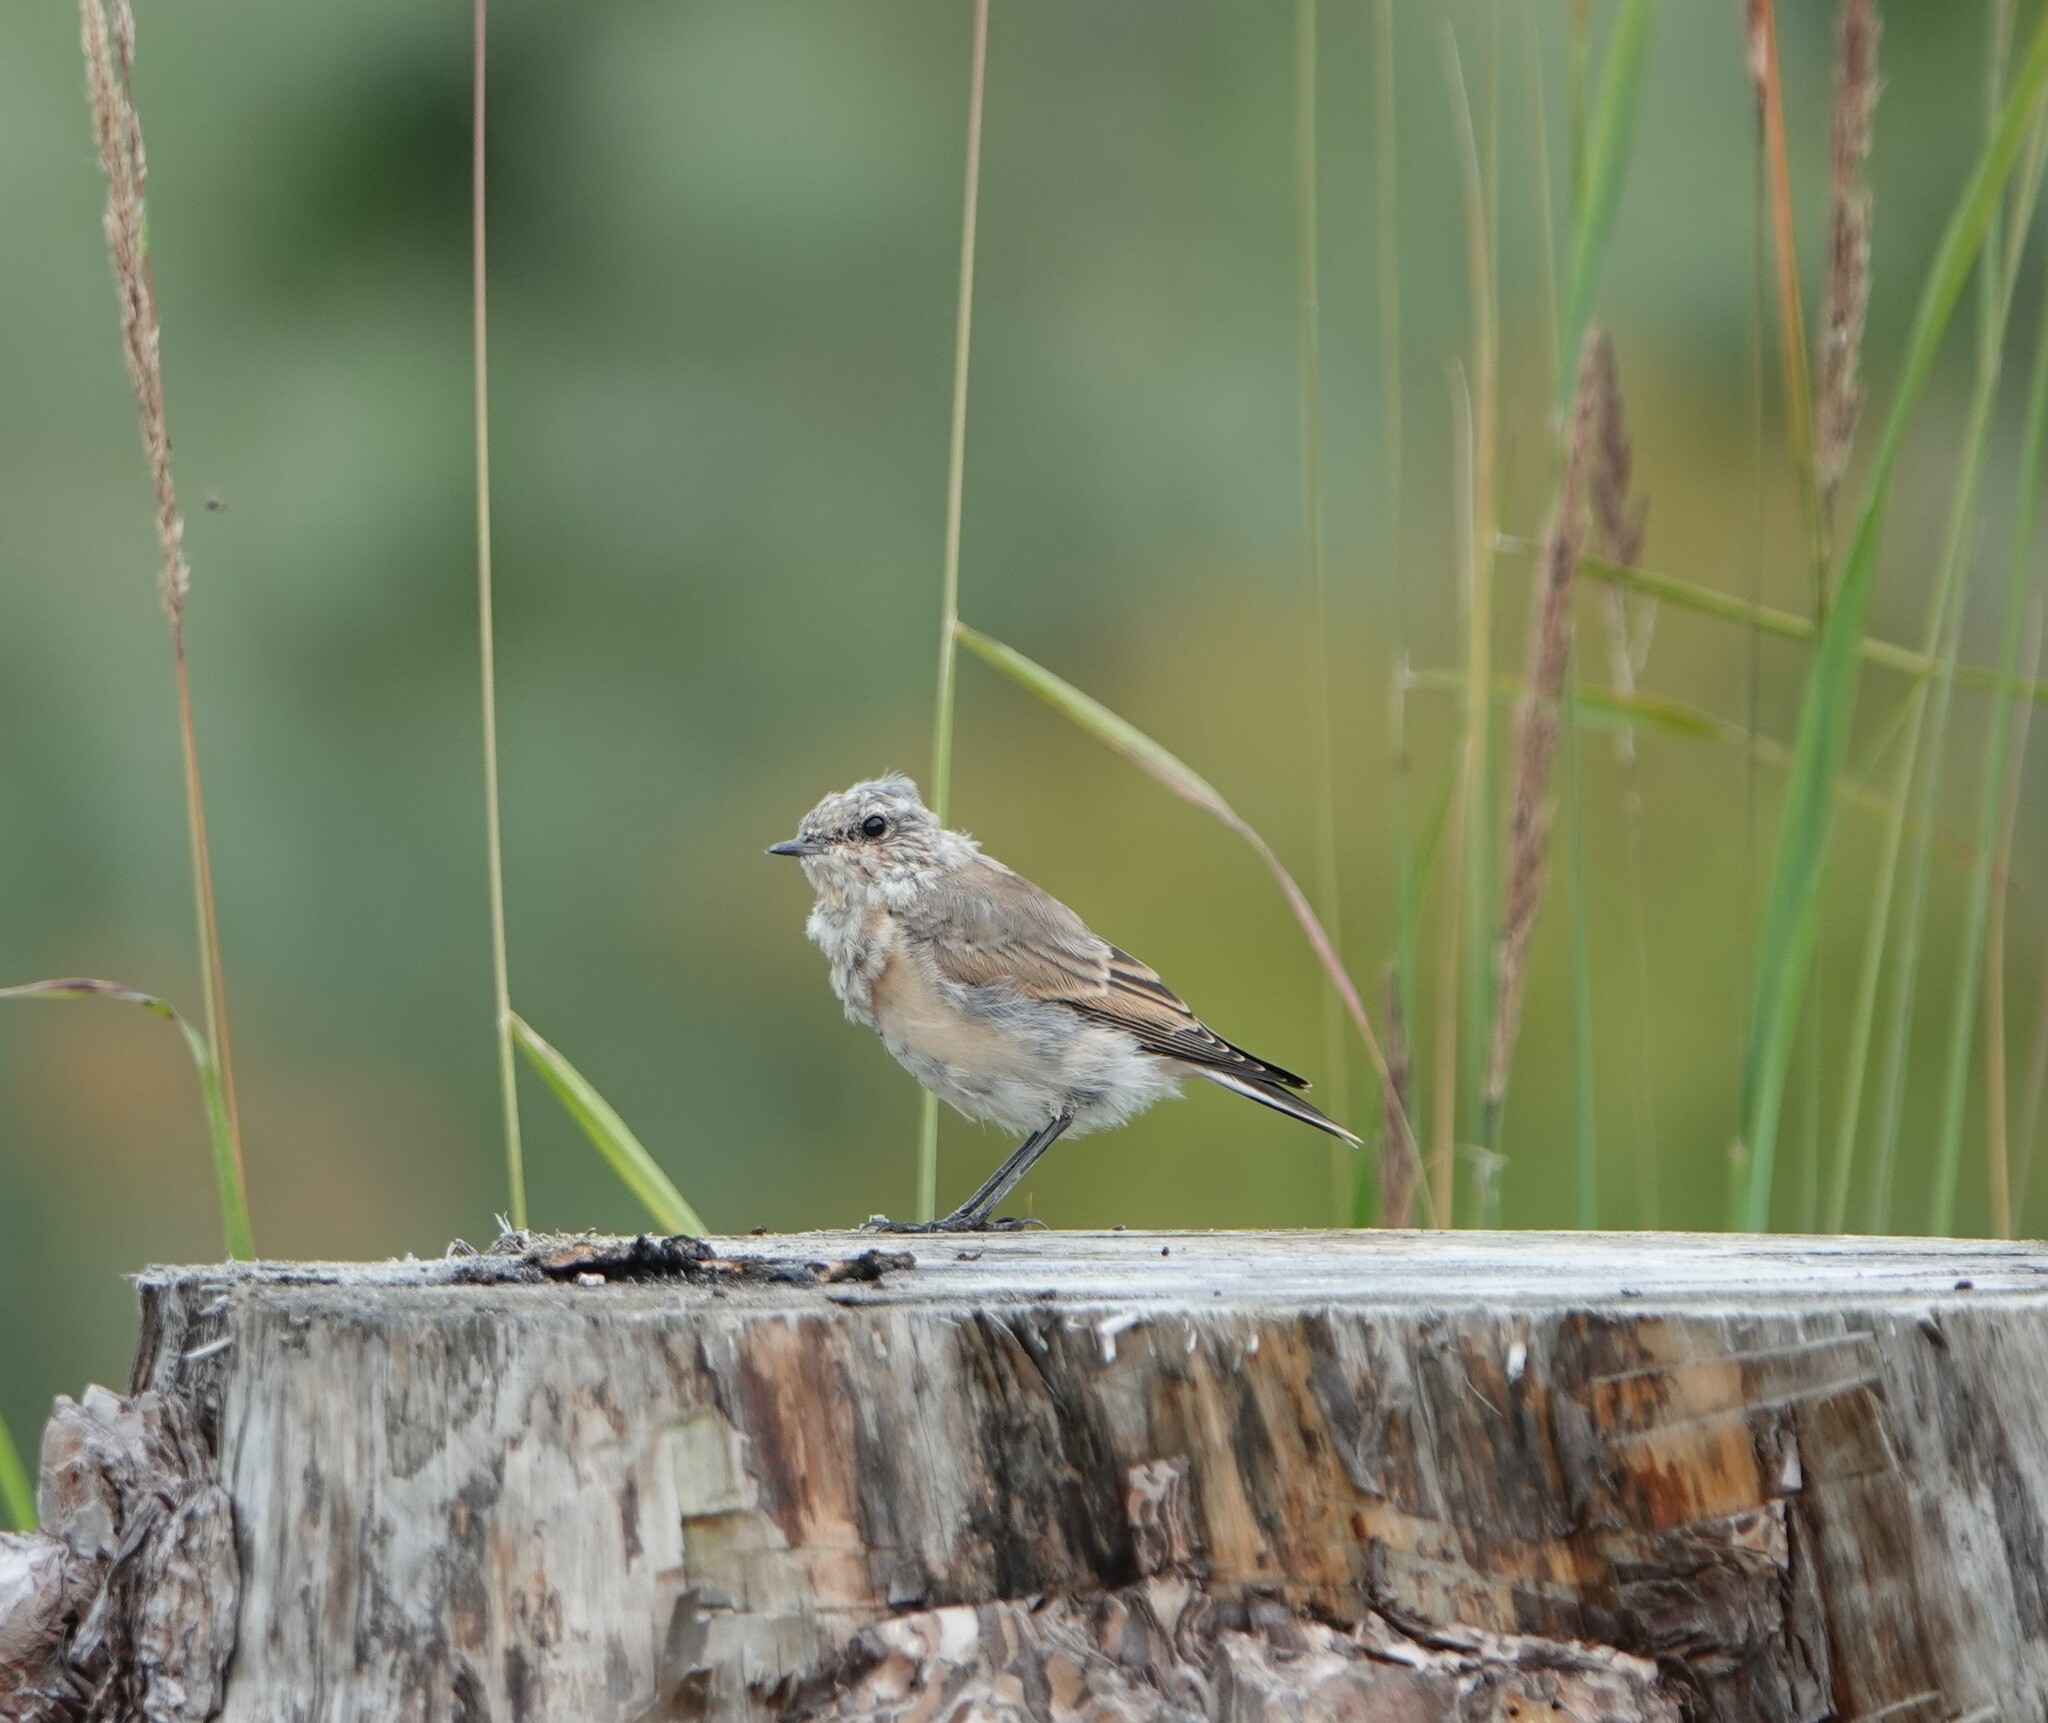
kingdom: Animalia
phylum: Chordata
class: Aves
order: Passeriformes
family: Muscicapidae
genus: Oenanthe
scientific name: Oenanthe oenanthe
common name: Northern wheatear
